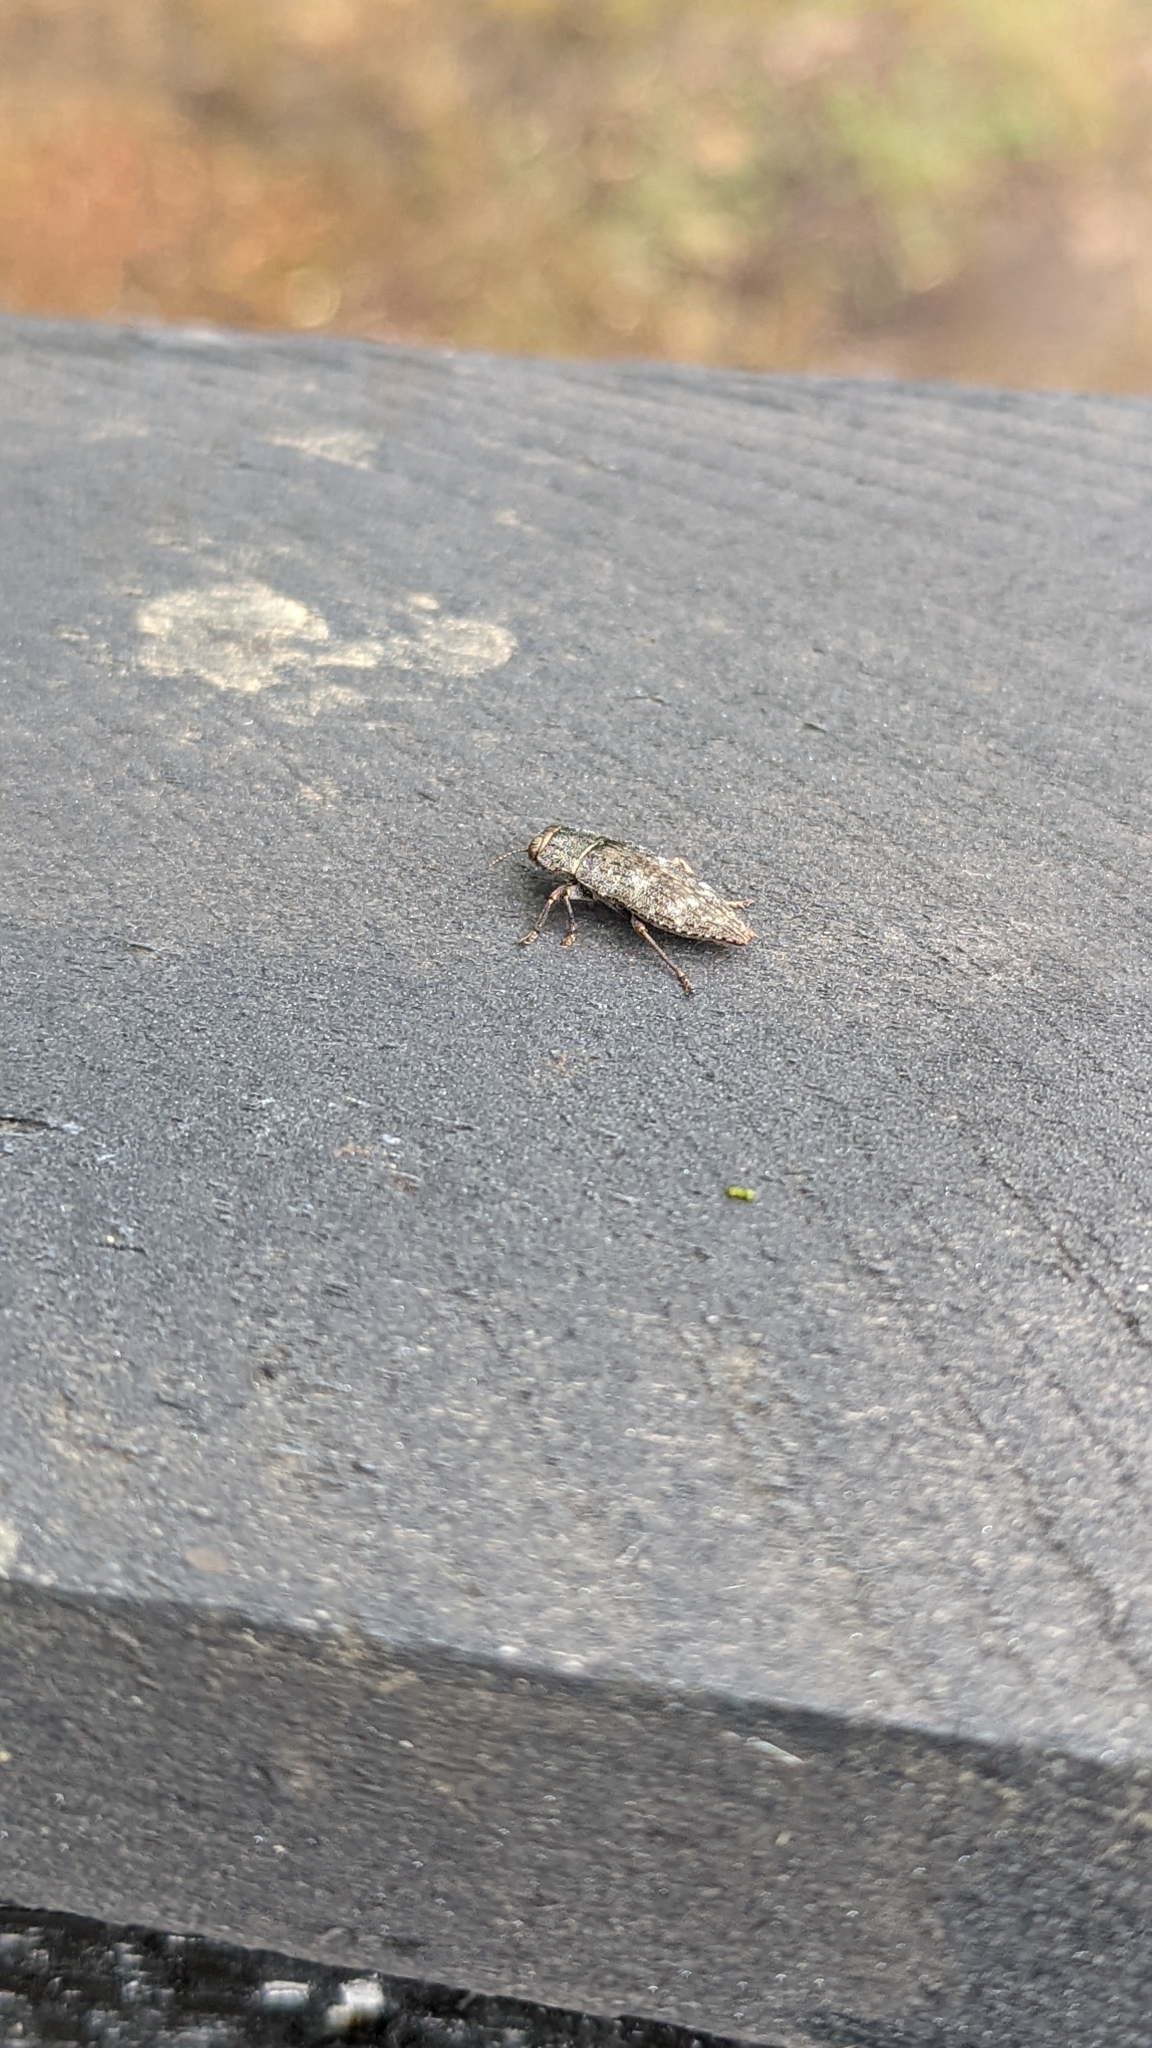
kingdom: Animalia
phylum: Arthropoda
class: Insecta
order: Coleoptera
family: Buprestidae
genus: Dicerca
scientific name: Dicerca lurida
